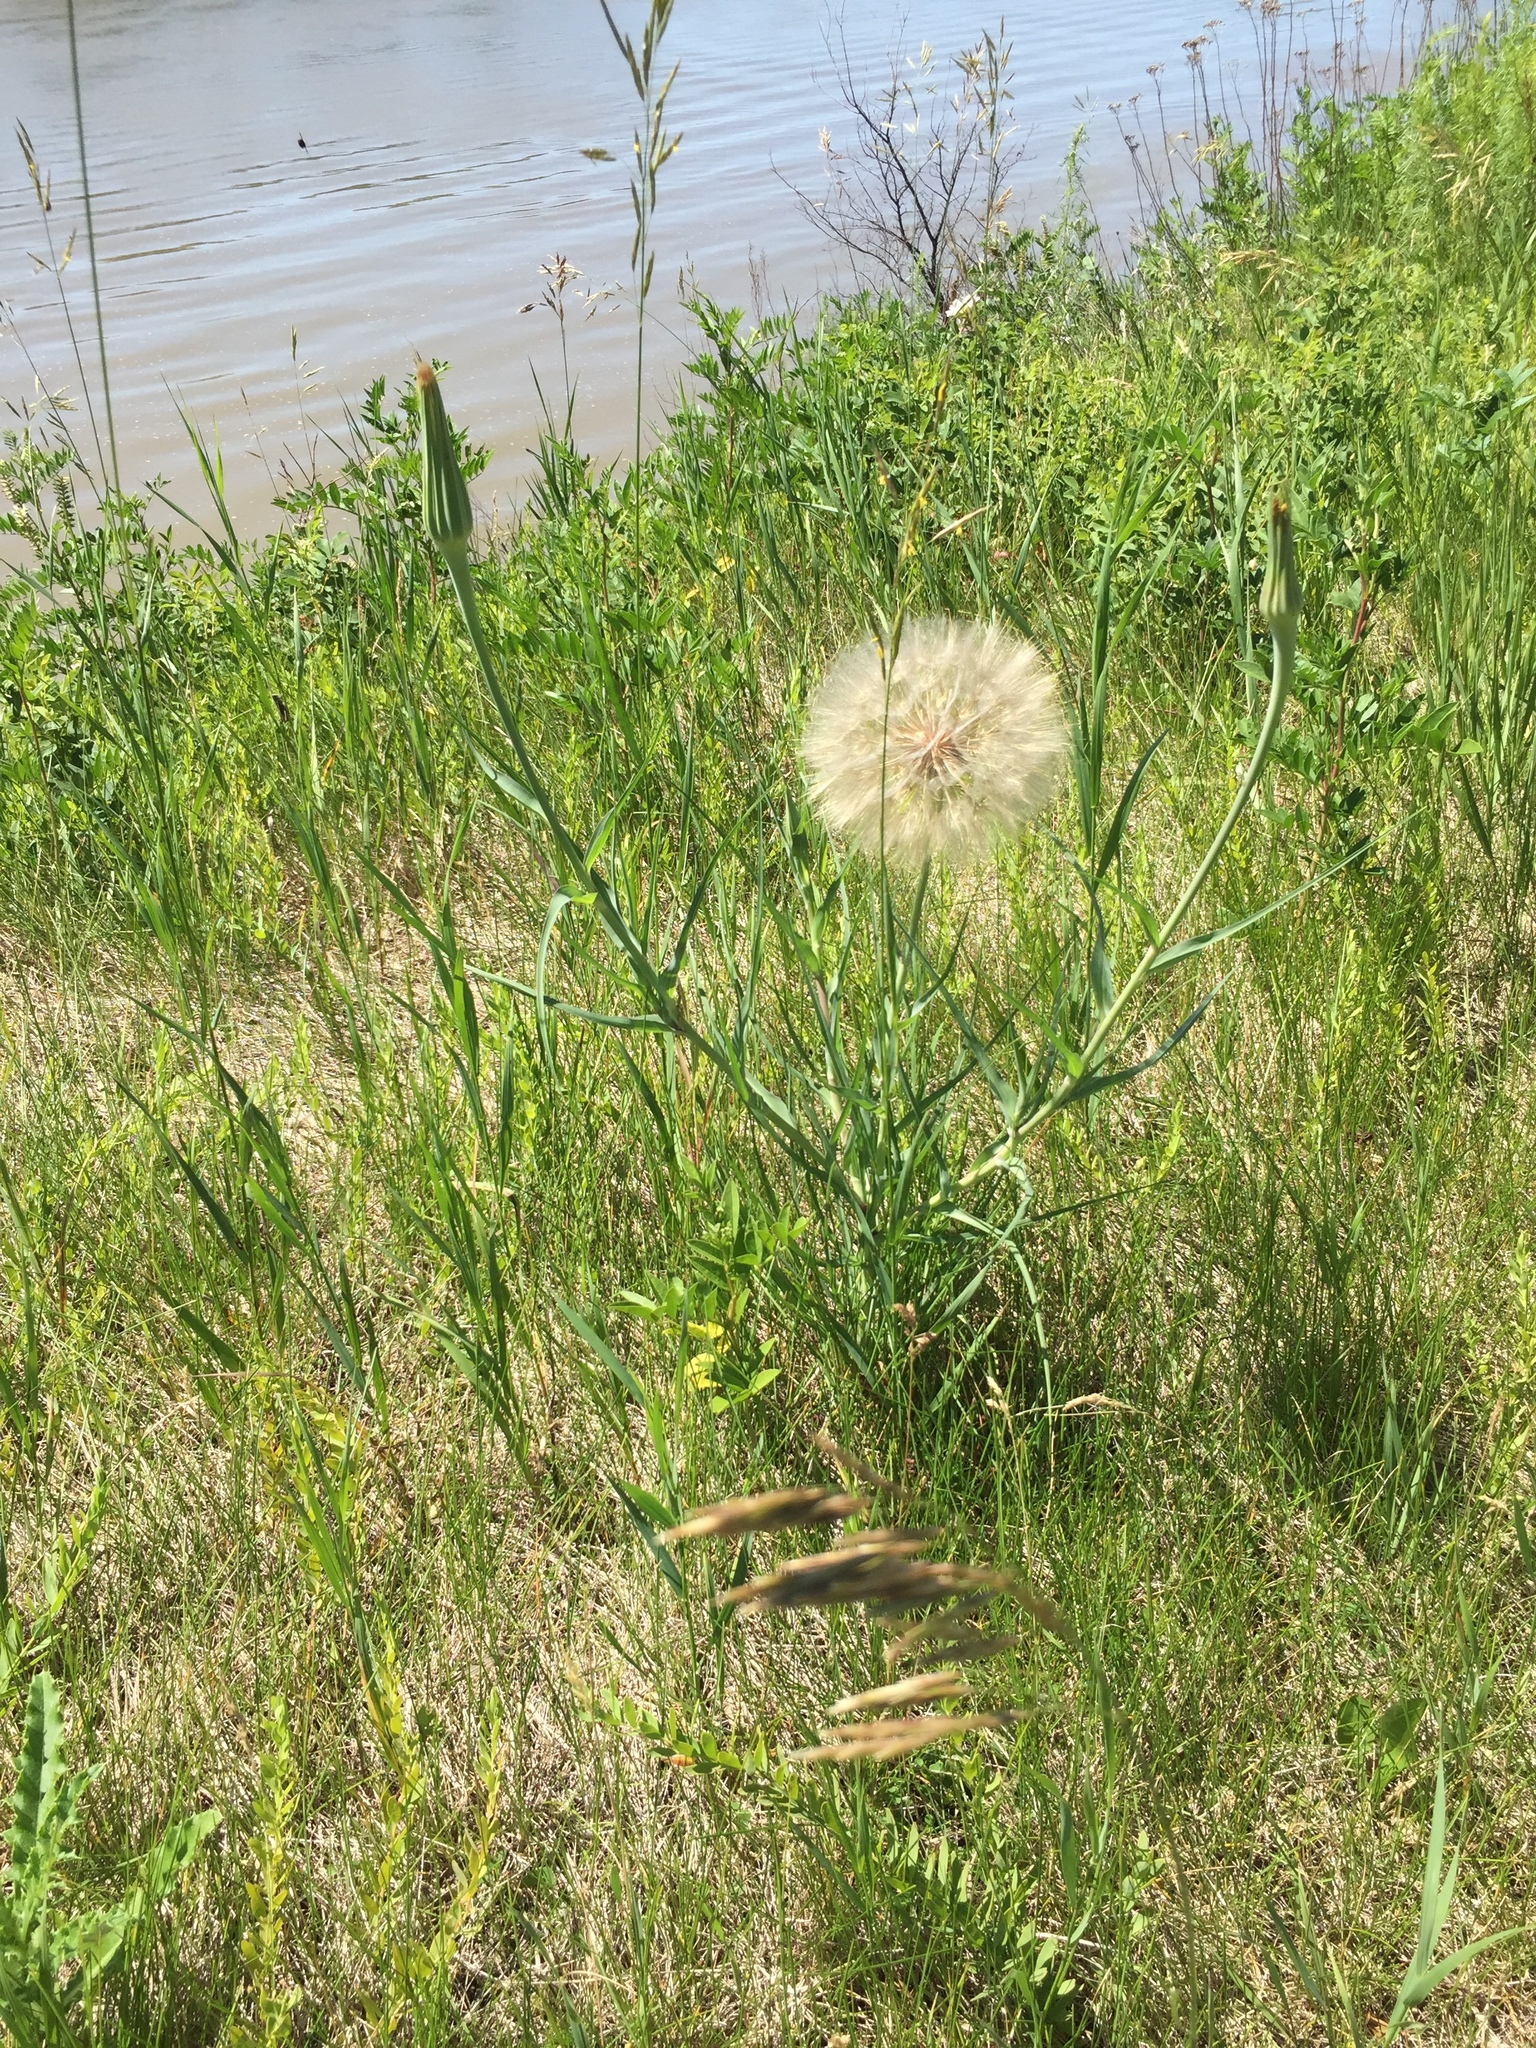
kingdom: Plantae
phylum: Tracheophyta
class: Magnoliopsida
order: Asterales
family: Asteraceae
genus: Tragopogon
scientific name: Tragopogon dubius
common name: Yellow salsify
